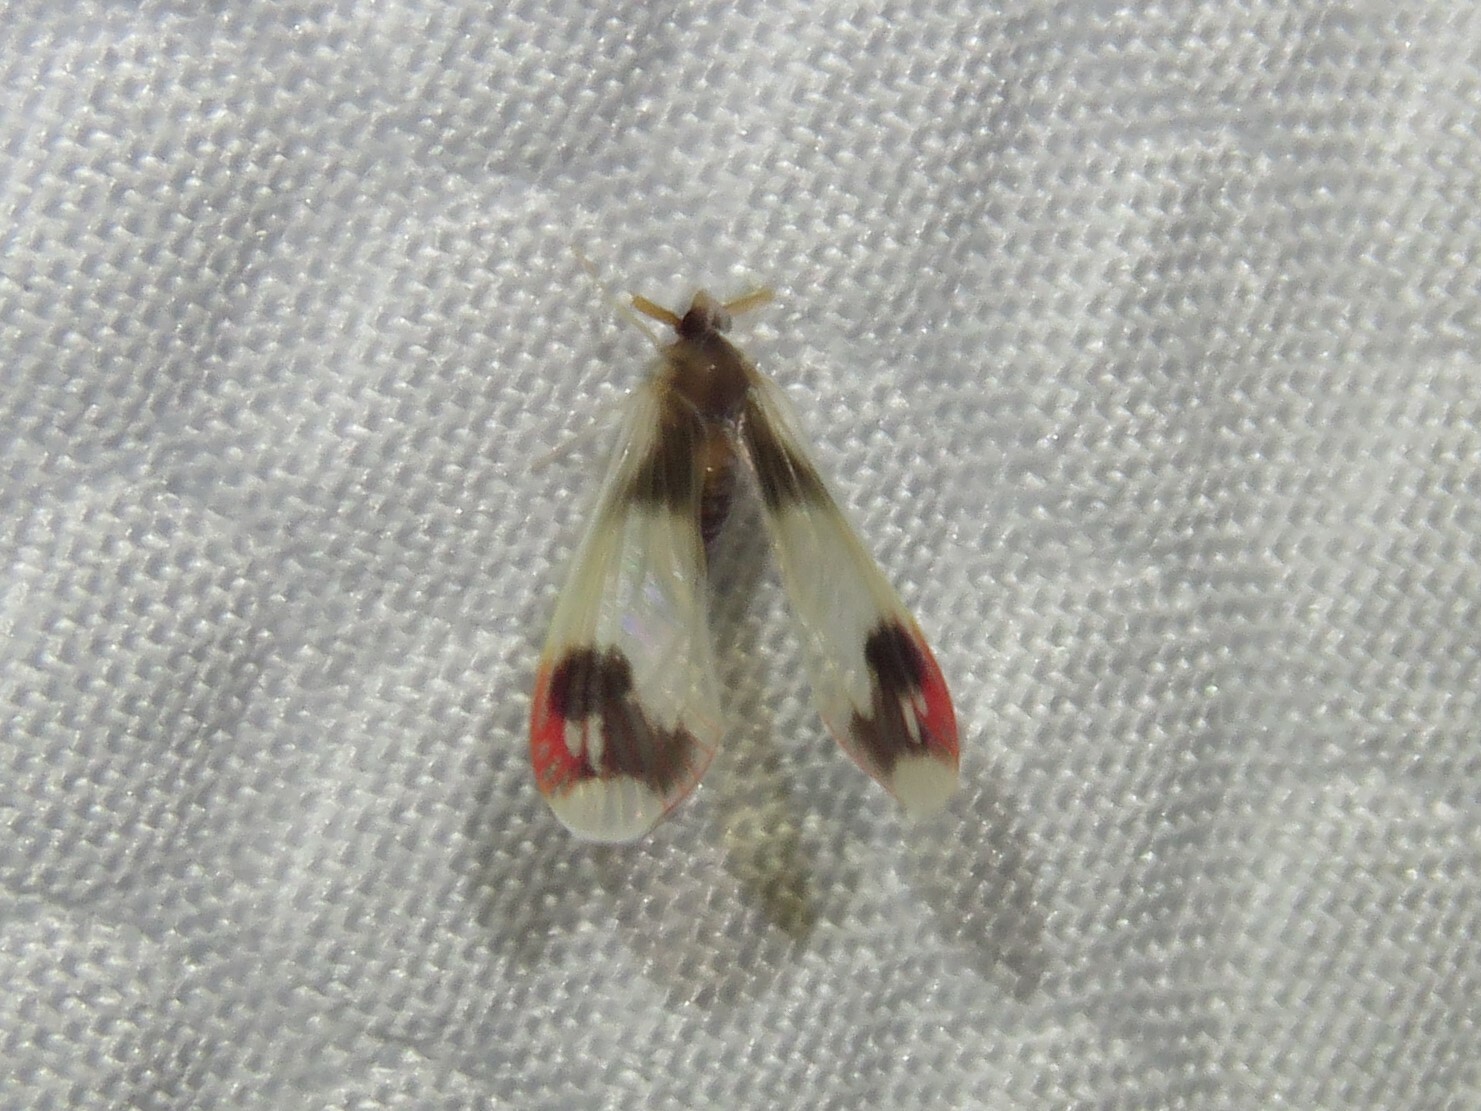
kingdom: Animalia
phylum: Arthropoda
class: Insecta
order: Hemiptera
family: Derbidae
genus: Anotia
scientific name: Anotia uhleri
